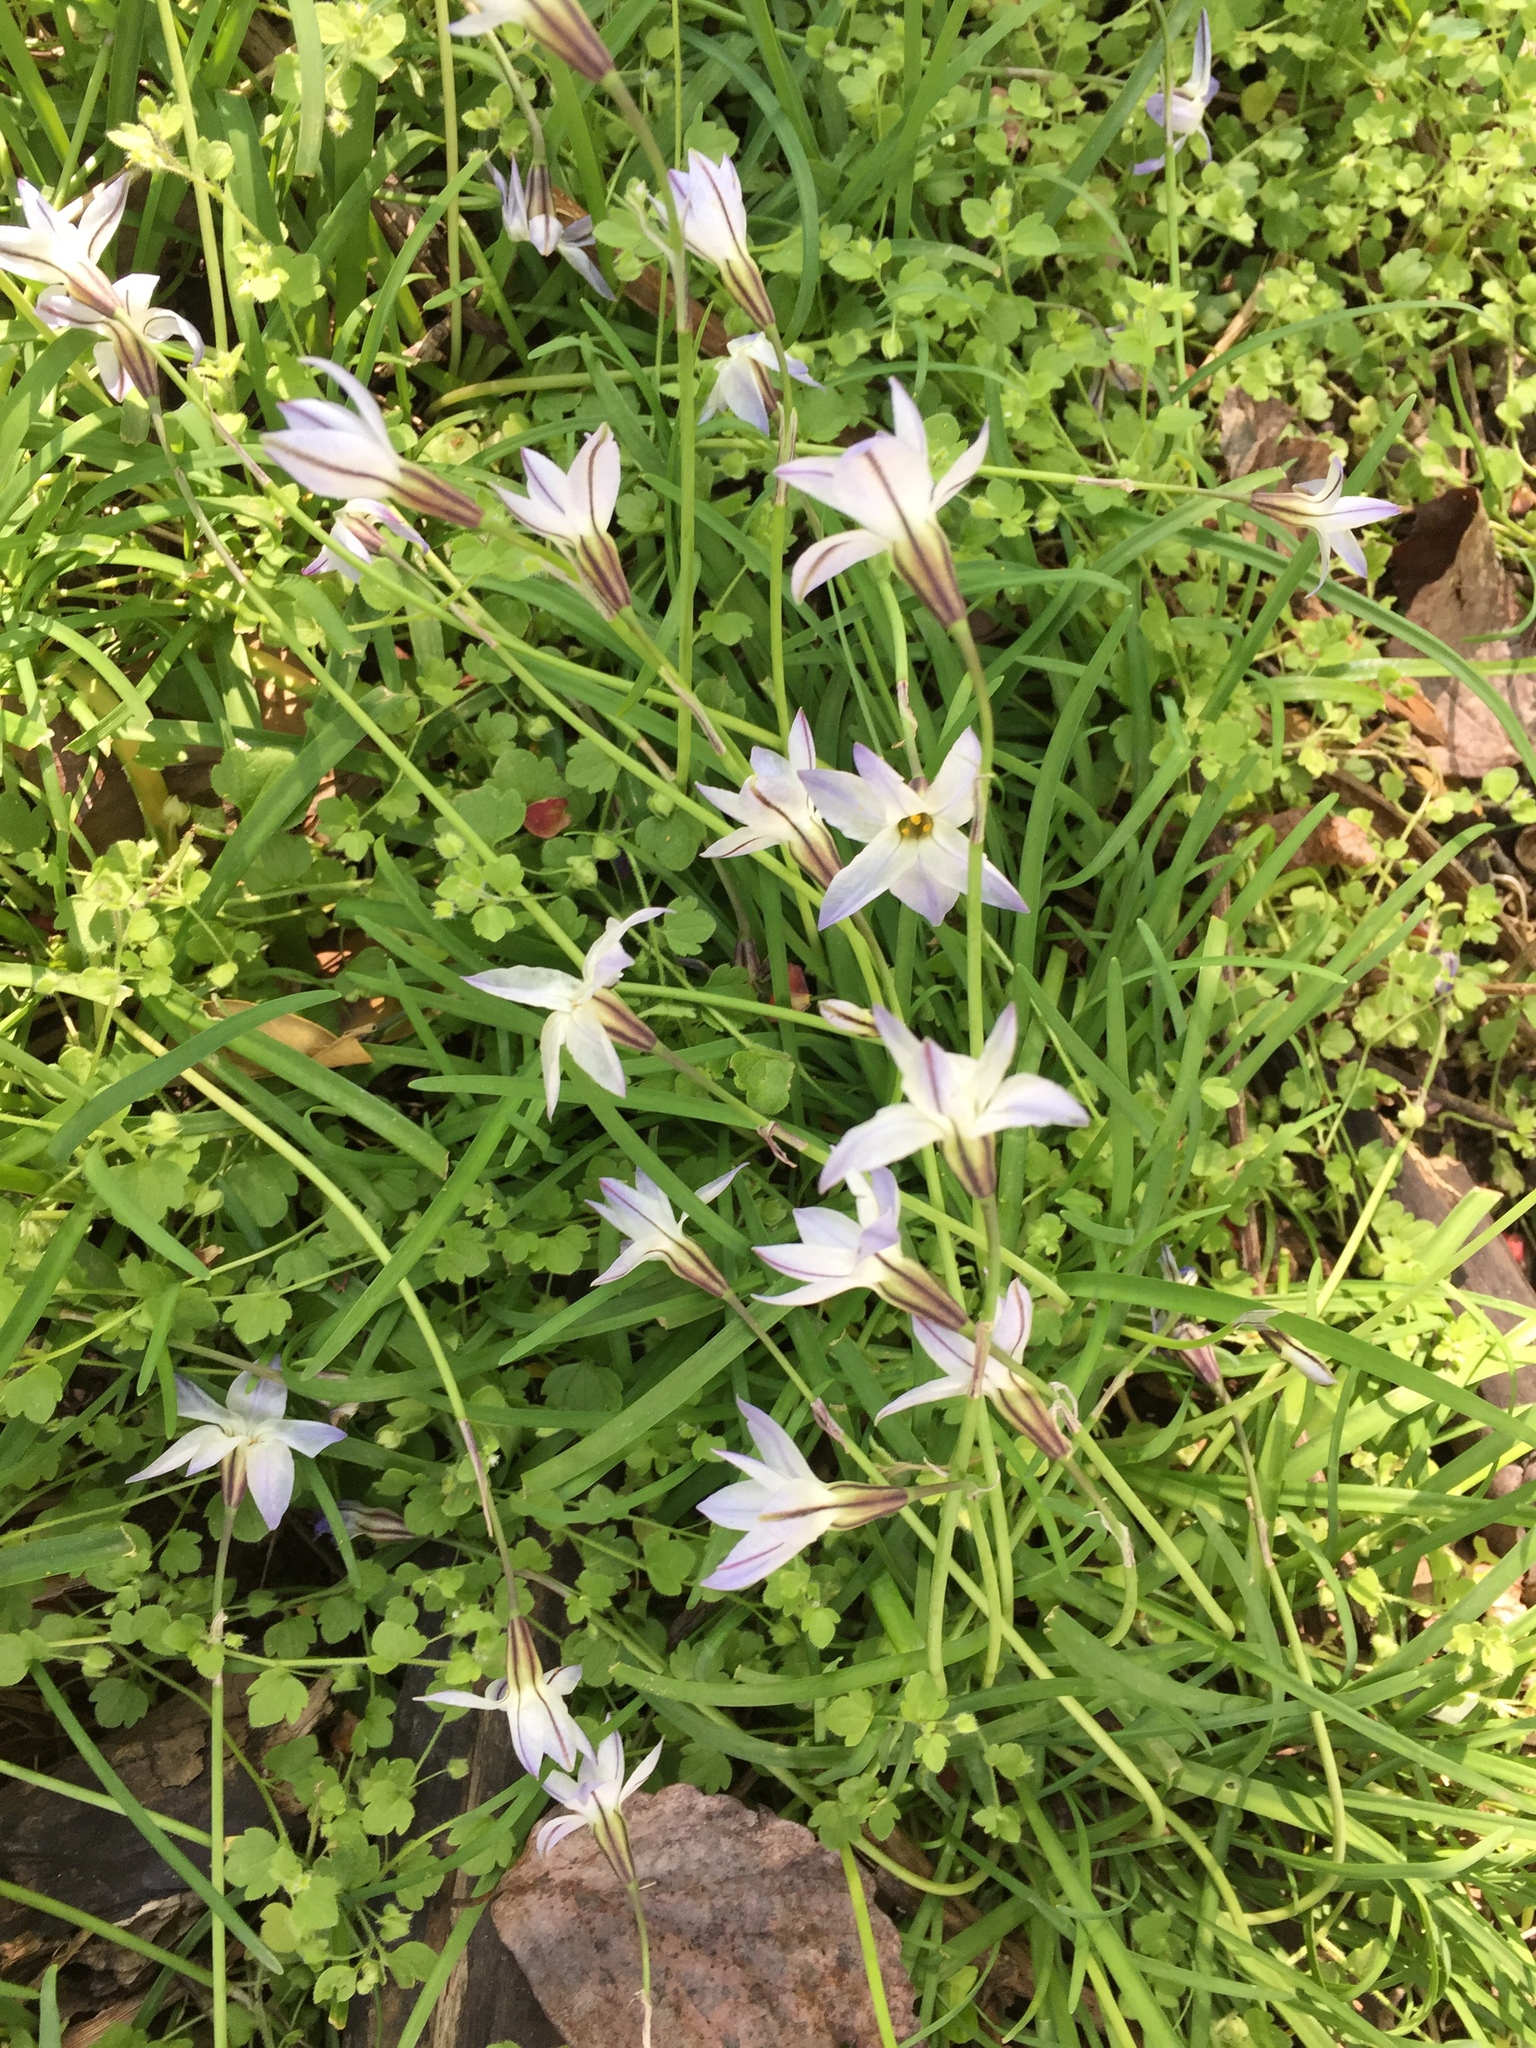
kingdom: Plantae
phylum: Tracheophyta
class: Liliopsida
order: Asparagales
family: Amaryllidaceae
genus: Ipheion
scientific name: Ipheion uniflorum
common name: Spring starflower
